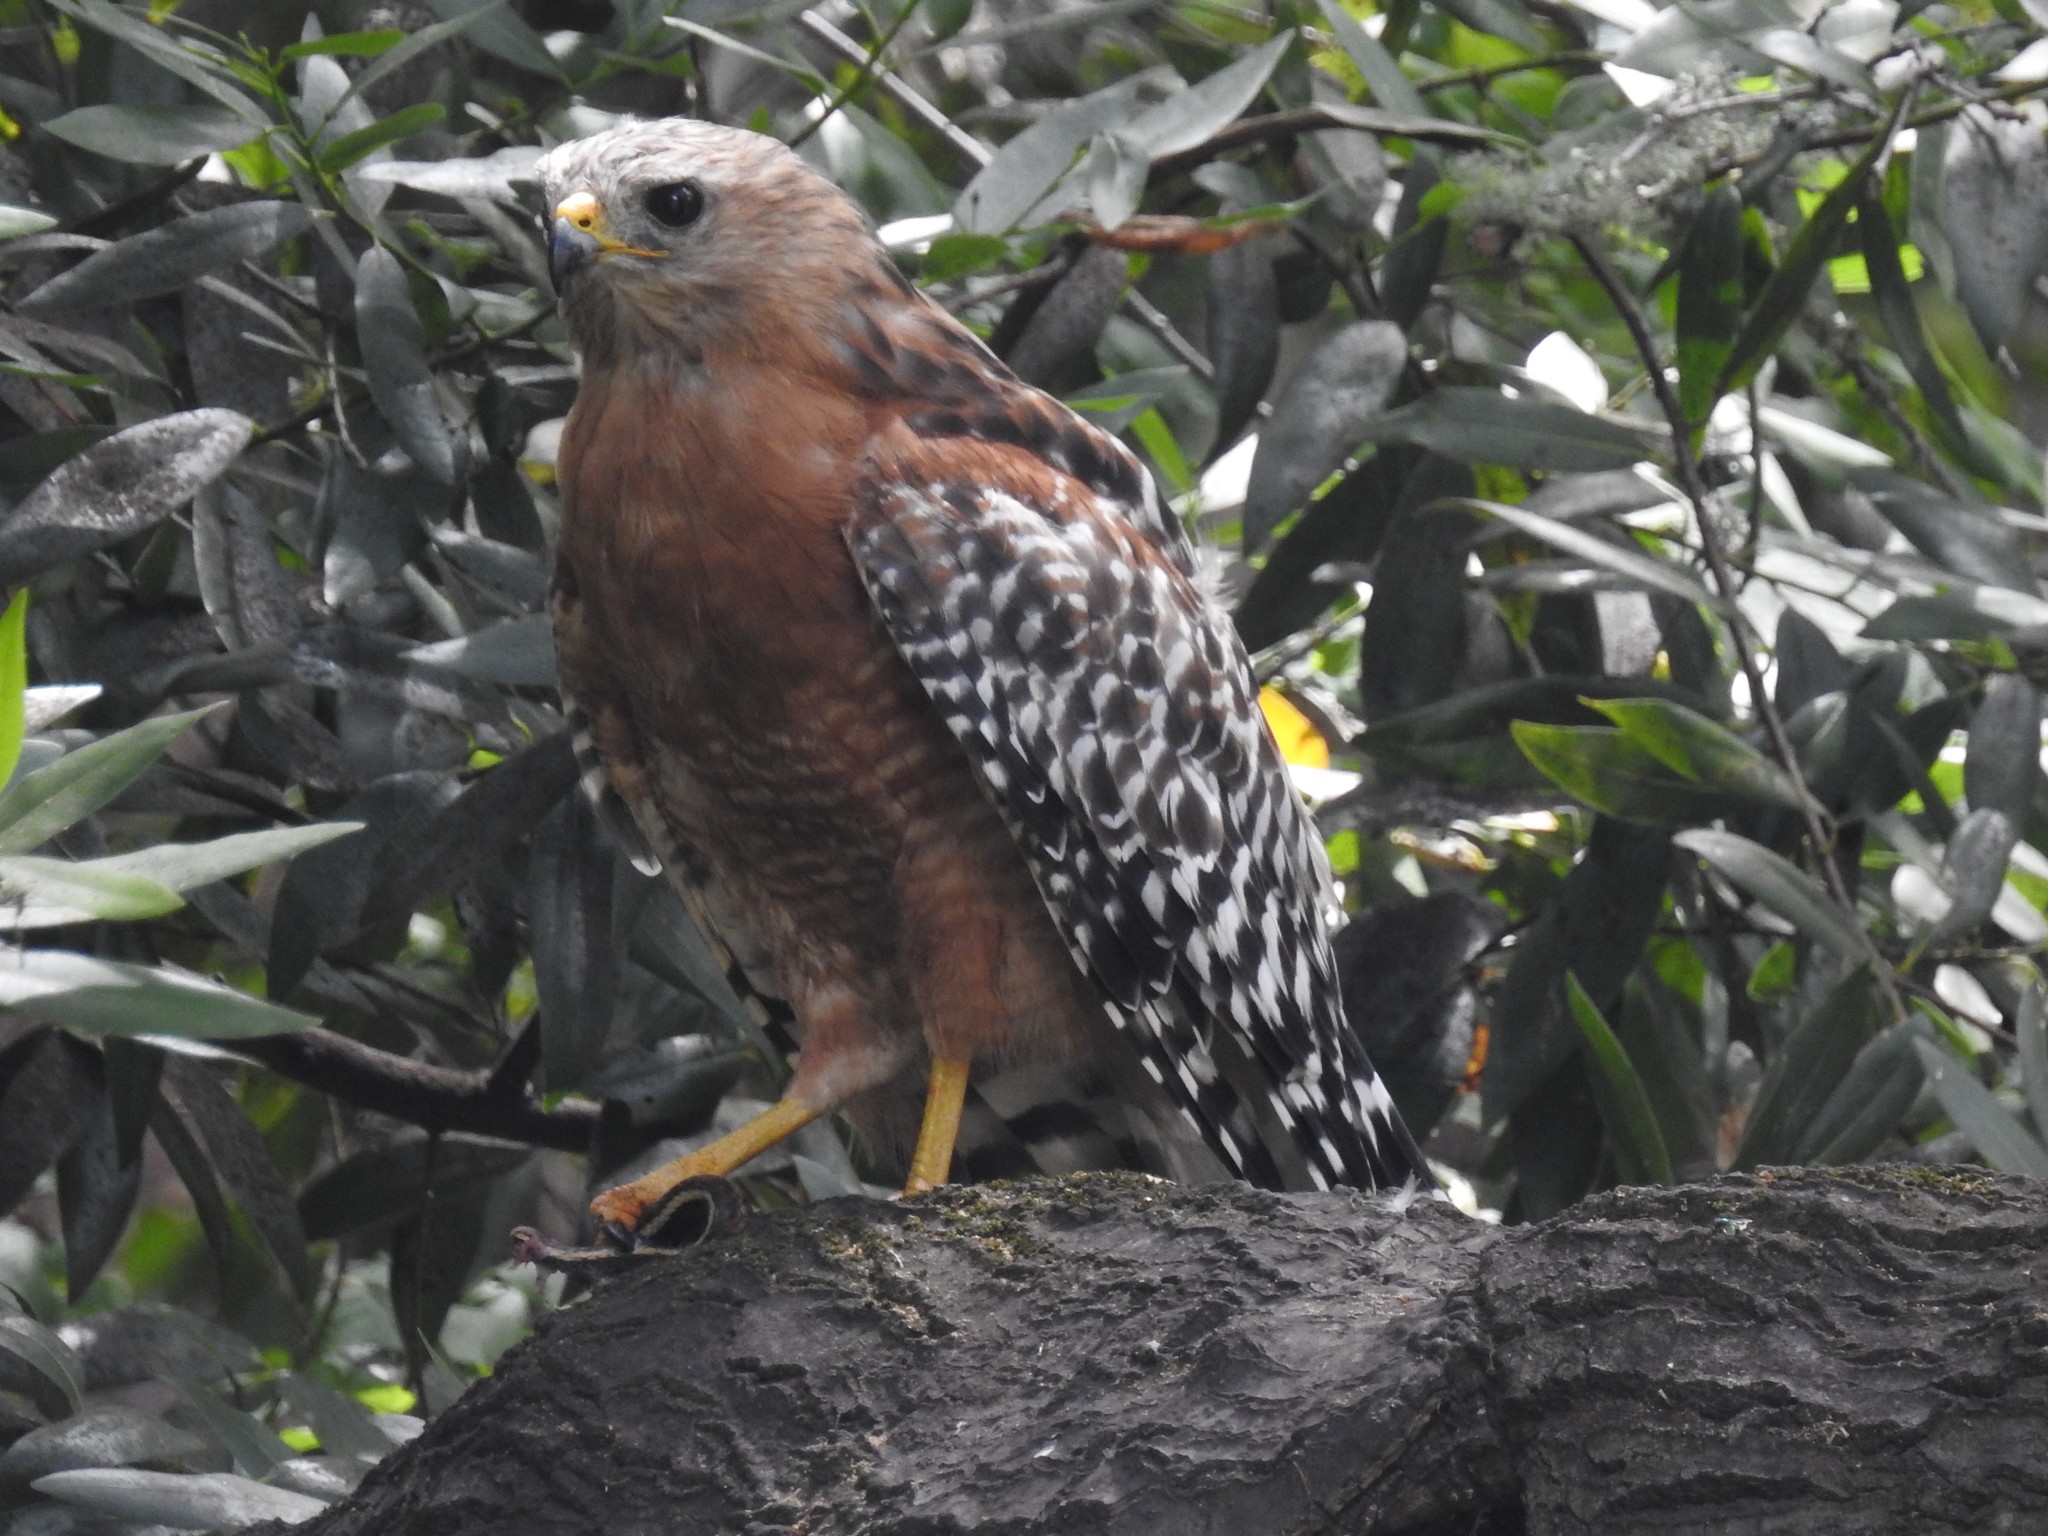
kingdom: Animalia
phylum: Chordata
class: Aves
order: Accipitriformes
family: Accipitridae
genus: Buteo
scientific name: Buteo lineatus
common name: Red-shouldered hawk
